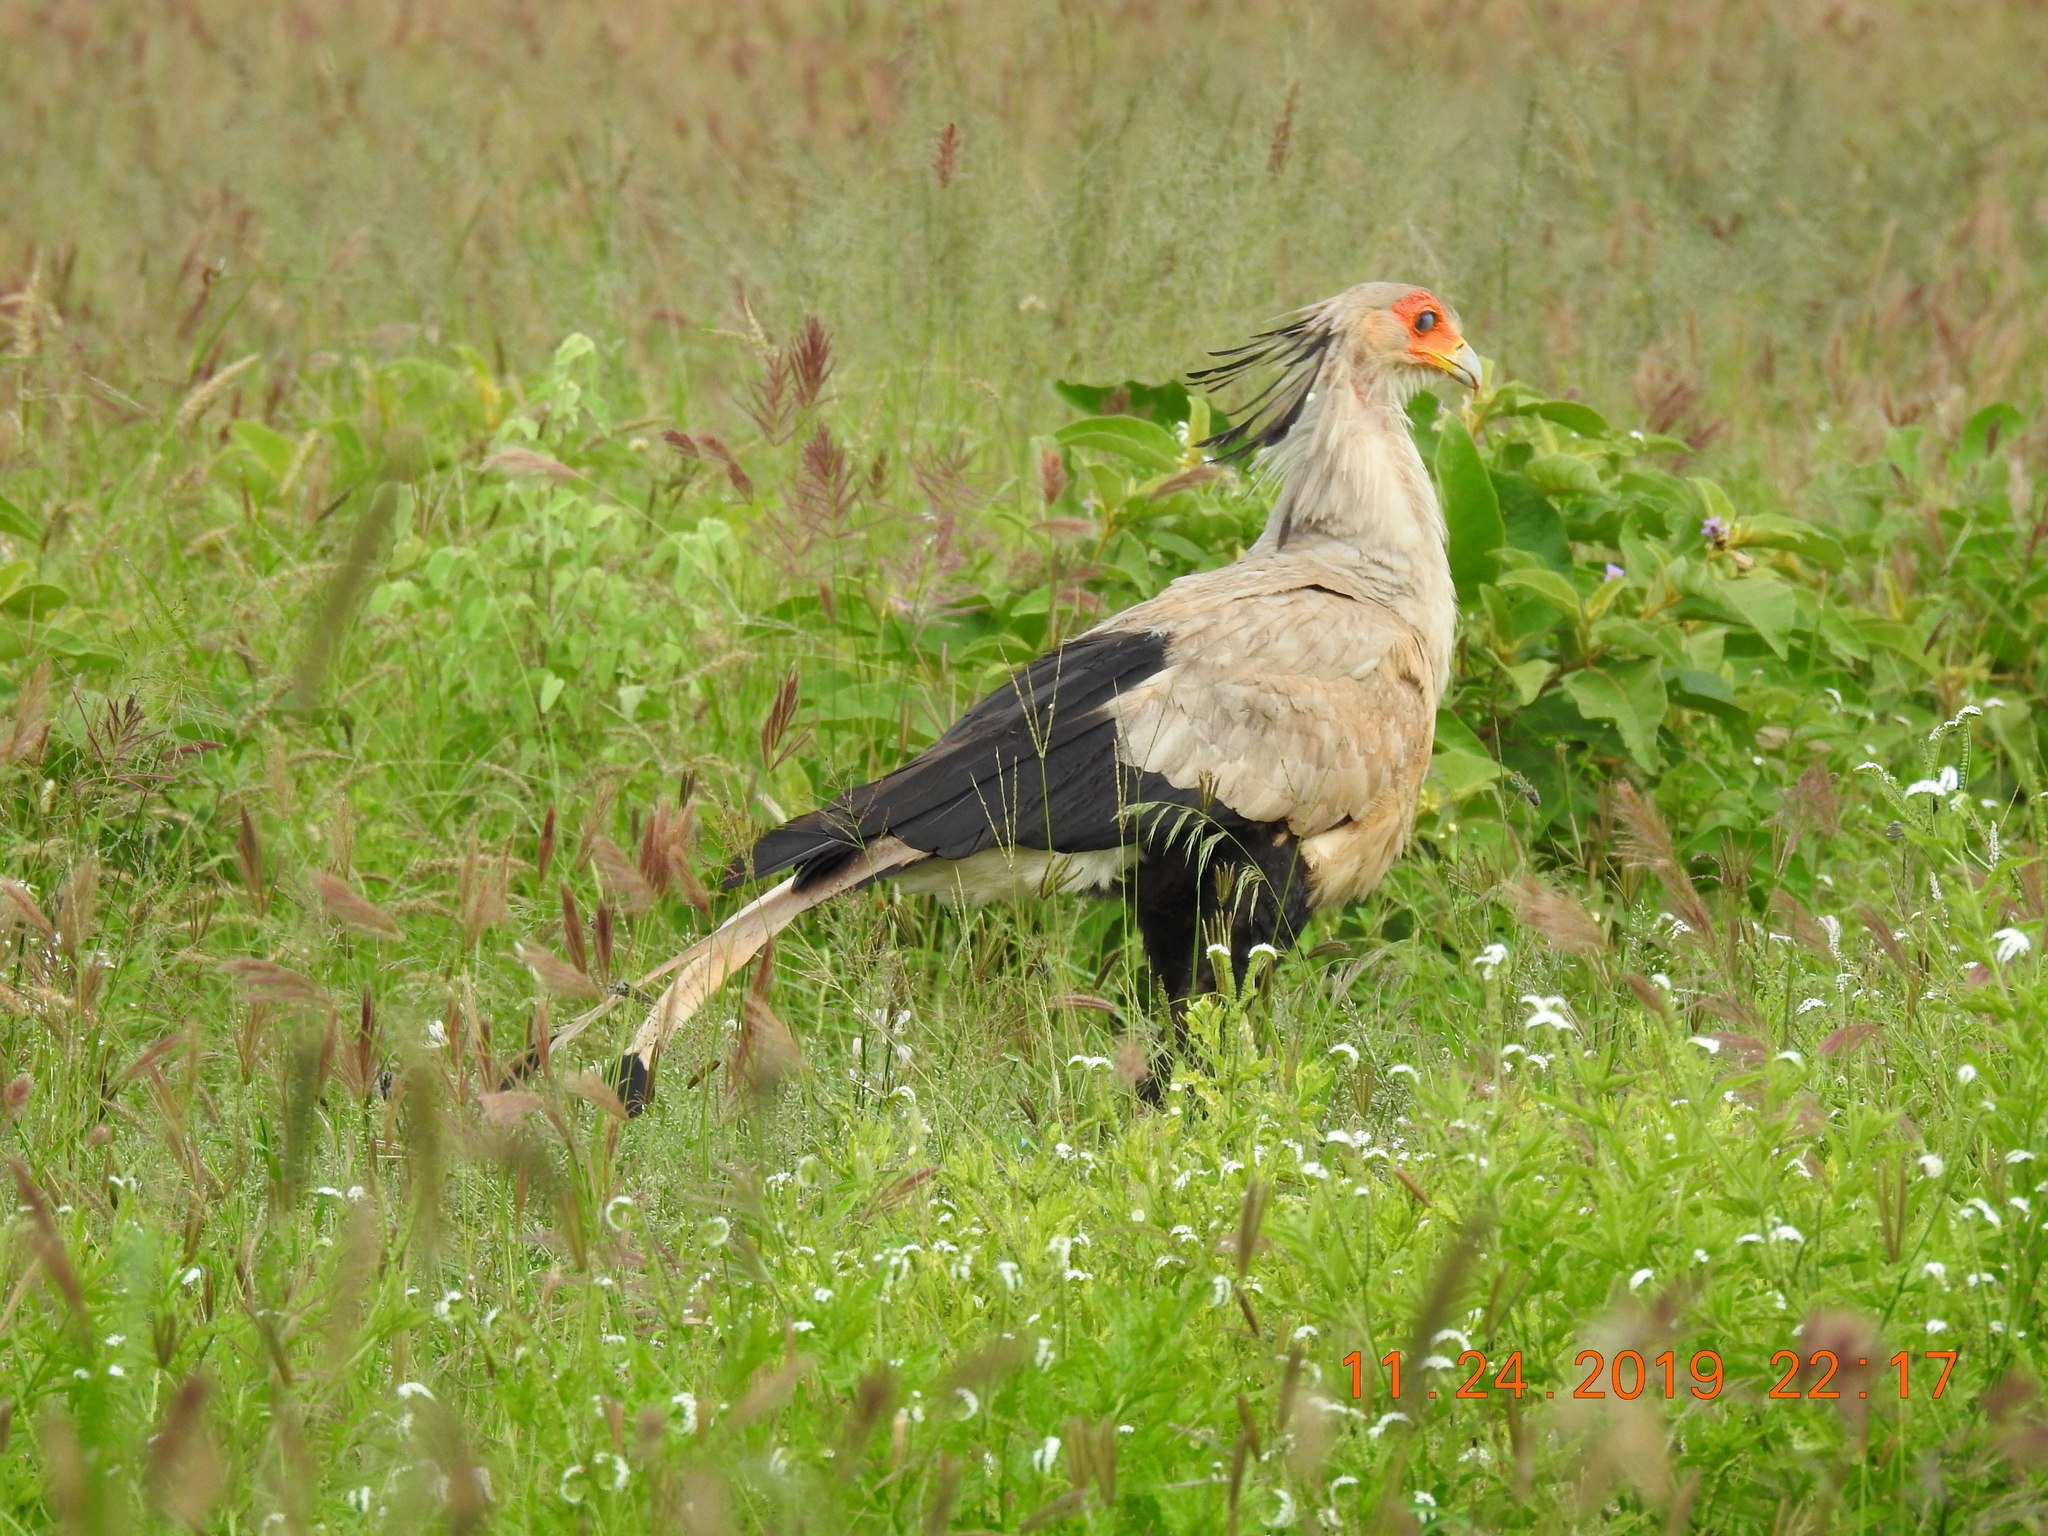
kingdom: Animalia
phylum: Chordata
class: Aves
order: Accipitriformes
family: Sagittariidae
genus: Sagittarius
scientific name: Sagittarius serpentarius
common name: Secretarybird
